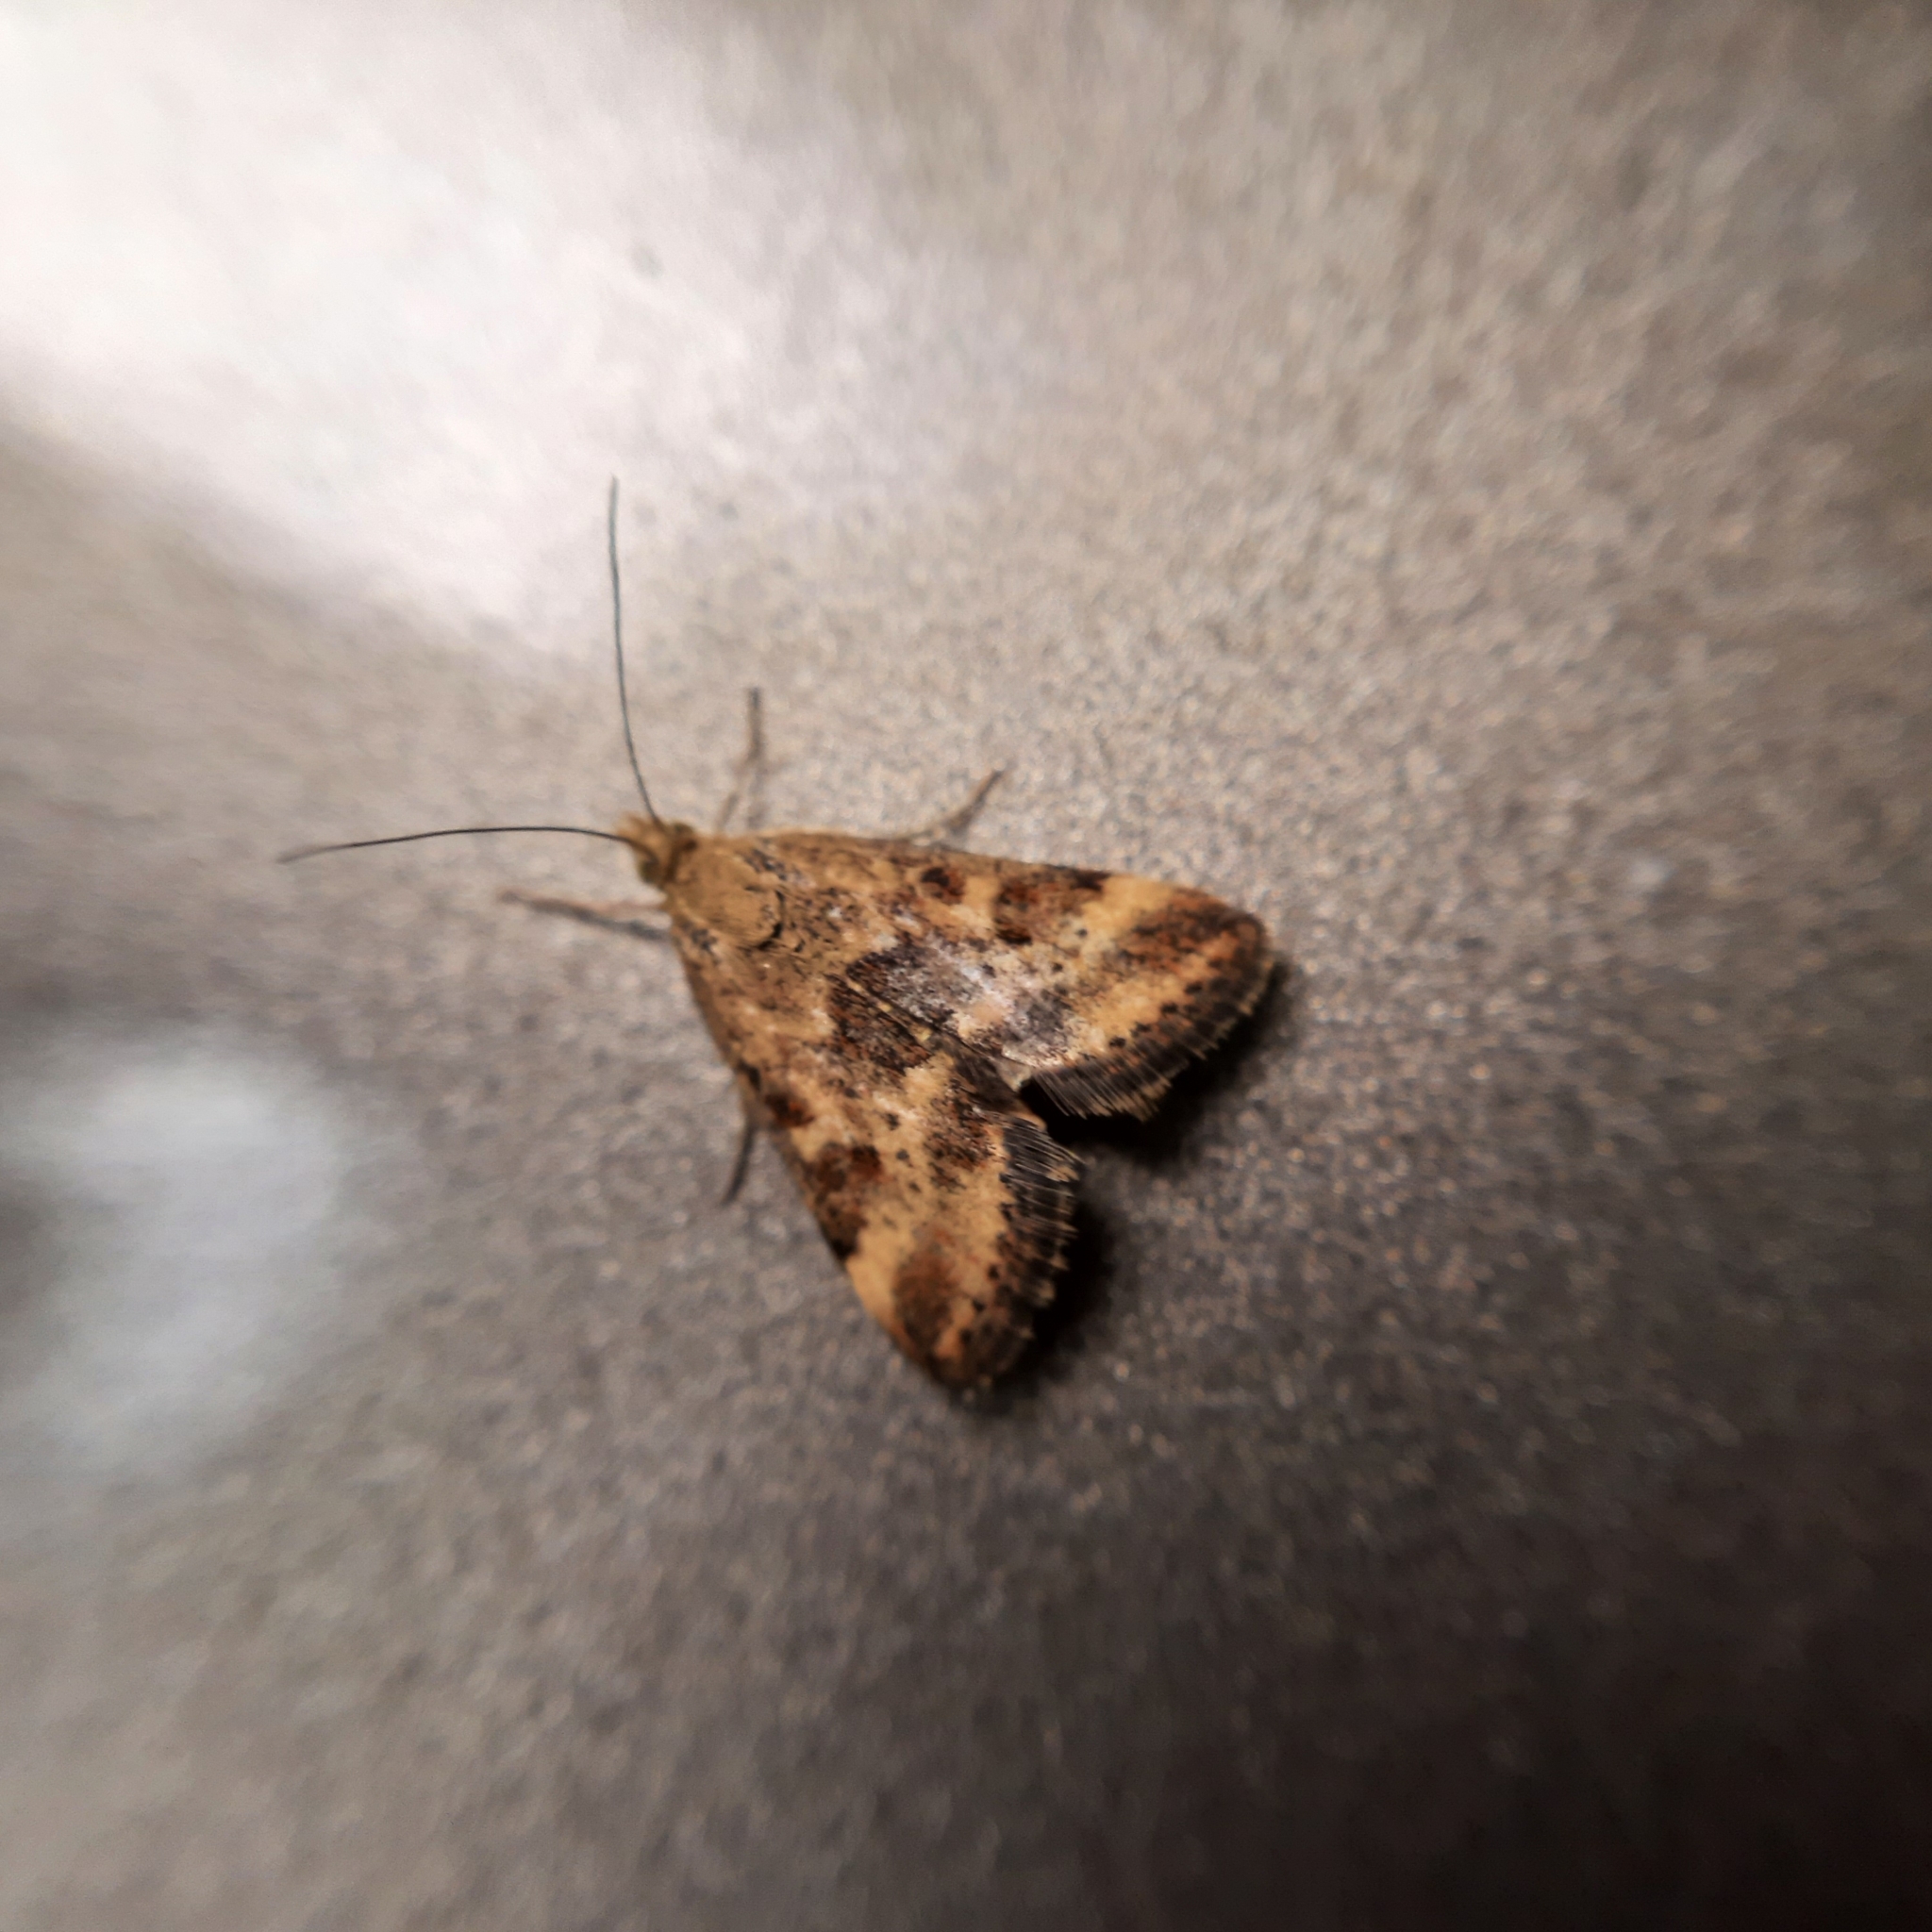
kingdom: Animalia
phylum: Arthropoda
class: Insecta
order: Lepidoptera
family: Crambidae
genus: Pyrausta
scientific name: Pyrausta despicata
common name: Straw-barred pearl
